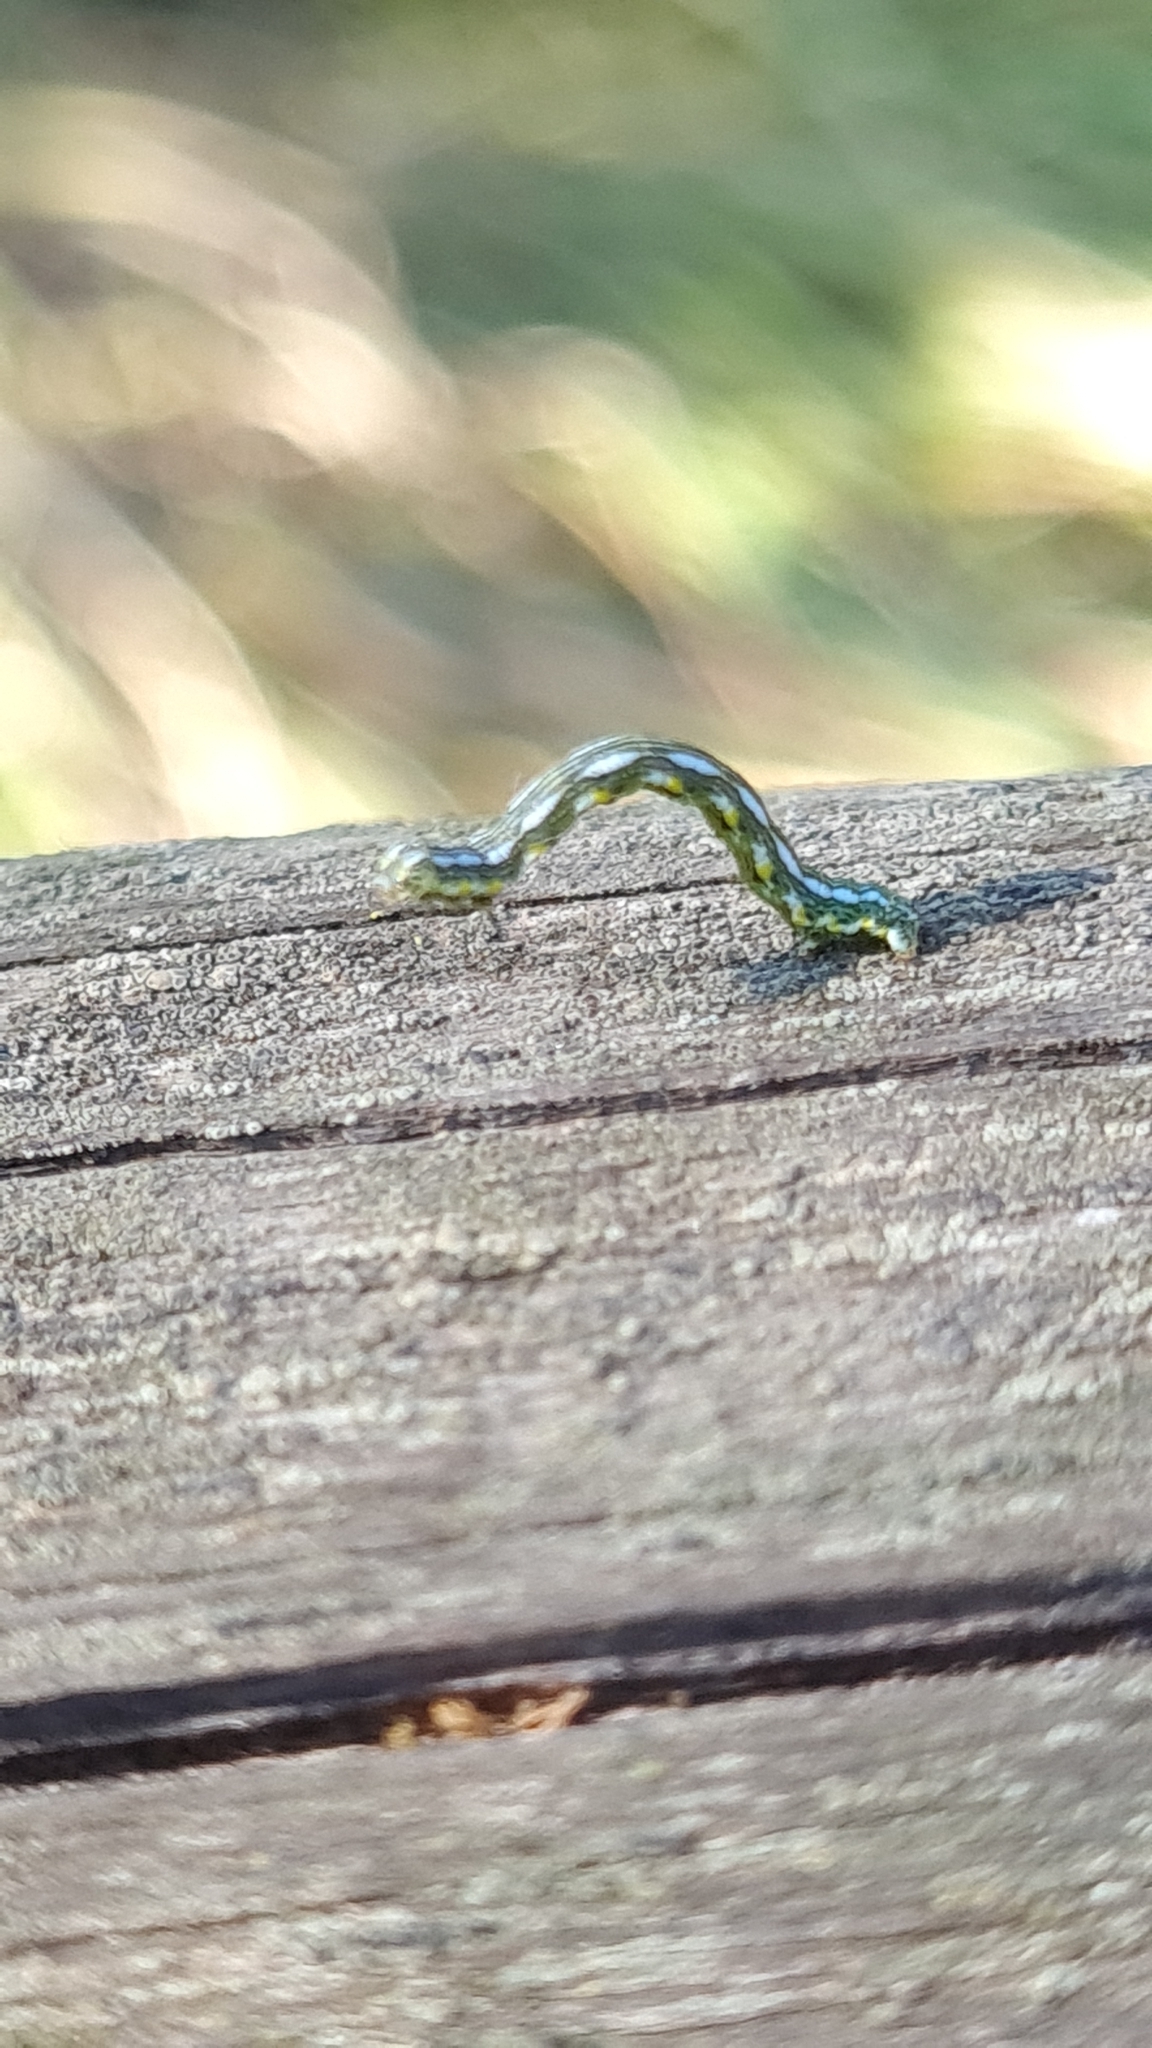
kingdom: Animalia
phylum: Arthropoda
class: Insecta
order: Lepidoptera
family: Geometridae
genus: Chiasmia
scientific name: Chiasmia aestimaria
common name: Tamarisk peacock
